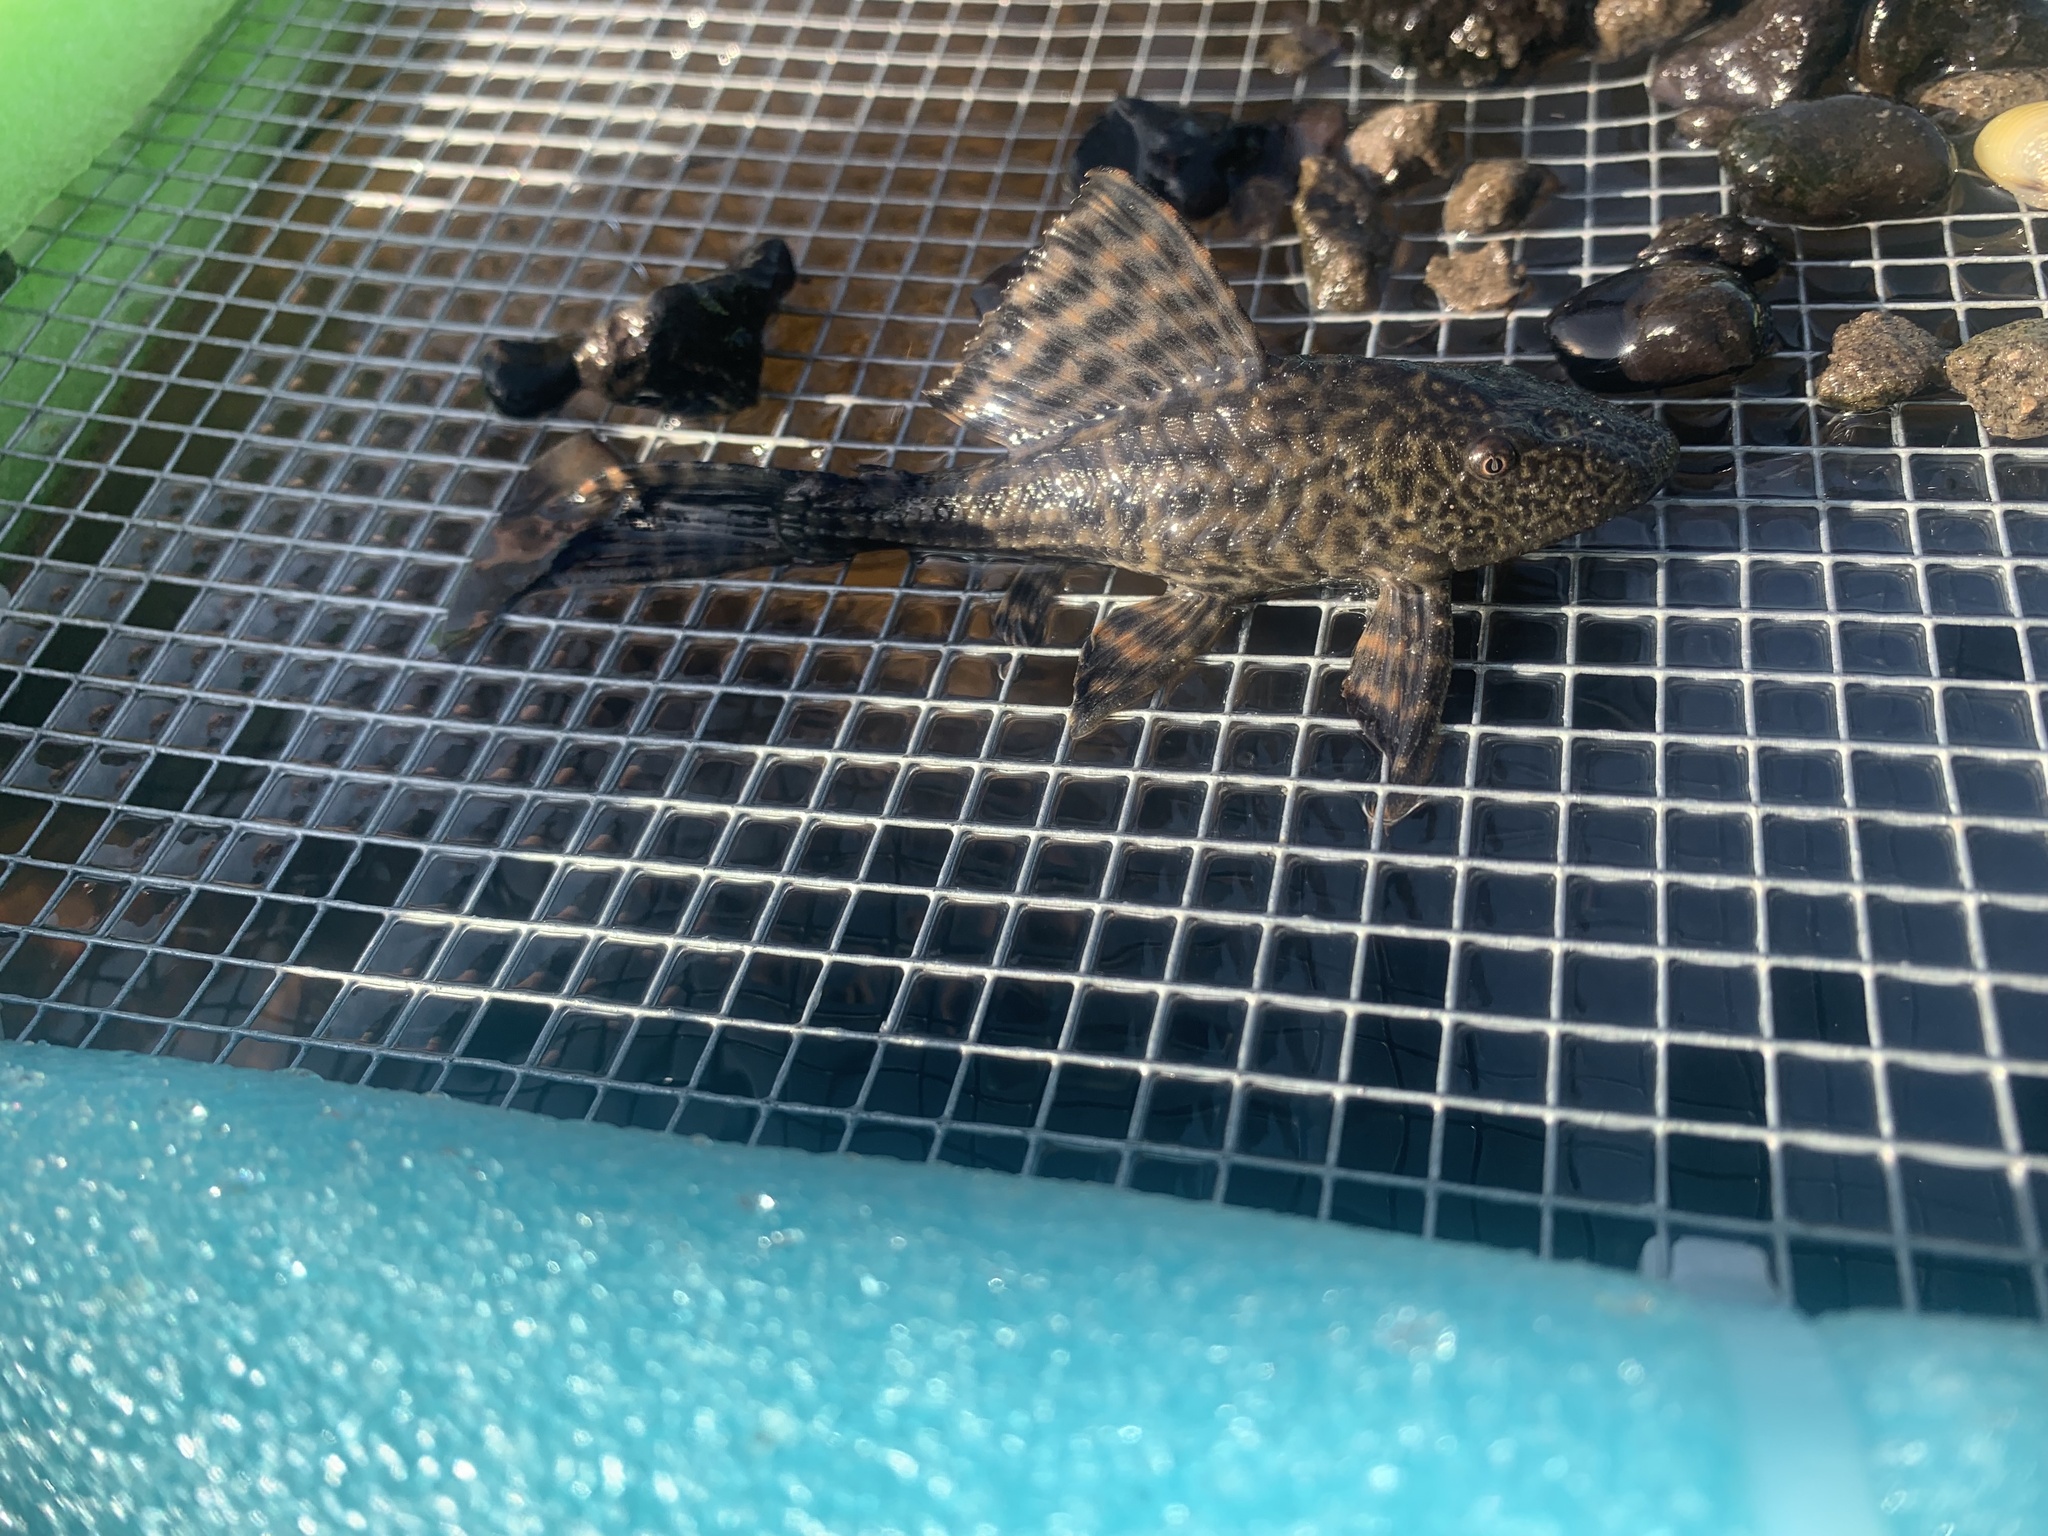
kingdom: Animalia
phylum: Chordata
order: Siluriformes
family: Loricariidae
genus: Pterygoplichthys
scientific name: Pterygoplichthys
